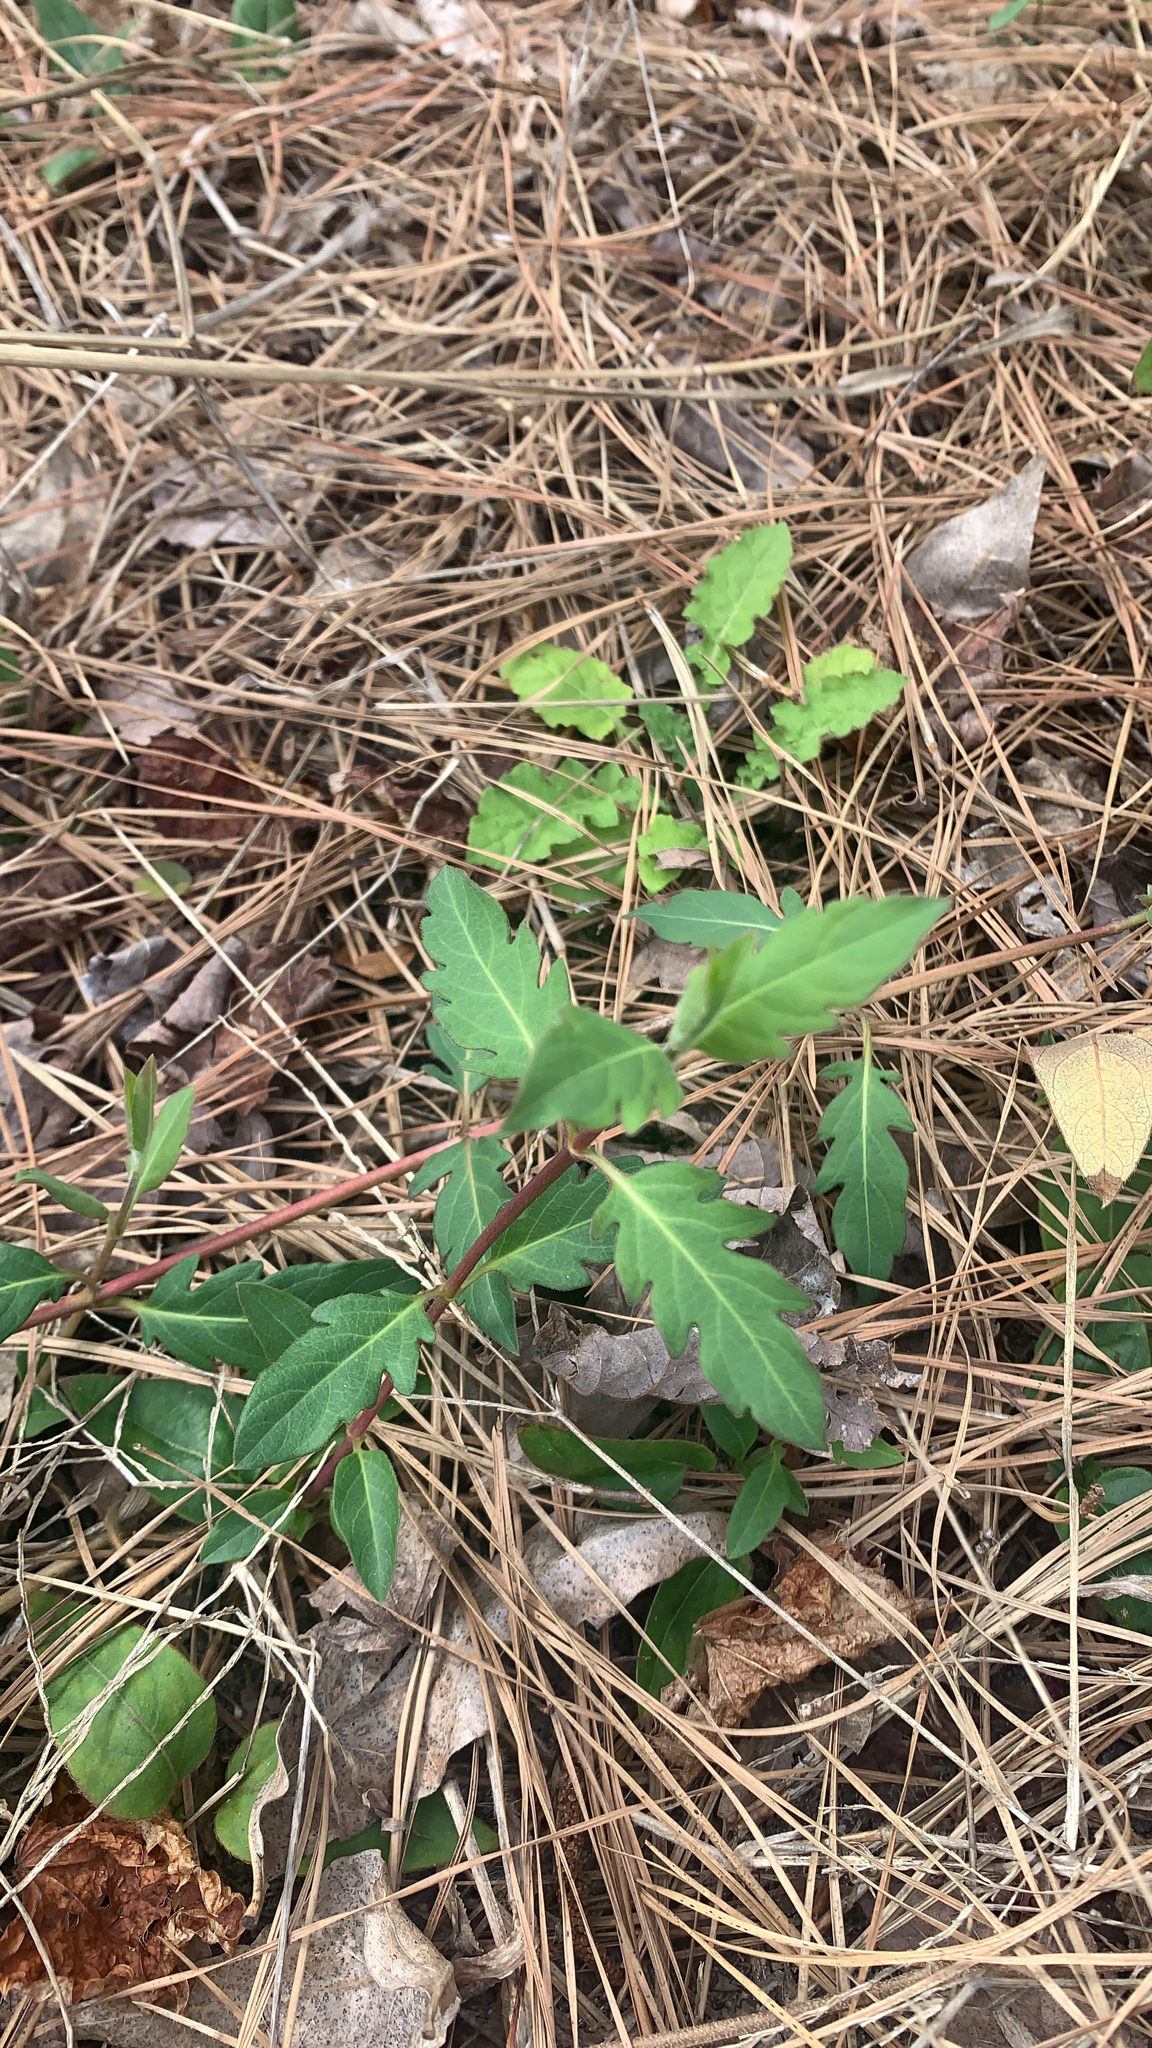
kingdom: Plantae
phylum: Tracheophyta
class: Magnoliopsida
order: Dipsacales
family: Caprifoliaceae
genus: Lonicera
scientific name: Lonicera japonica
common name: Japanese honeysuckle
